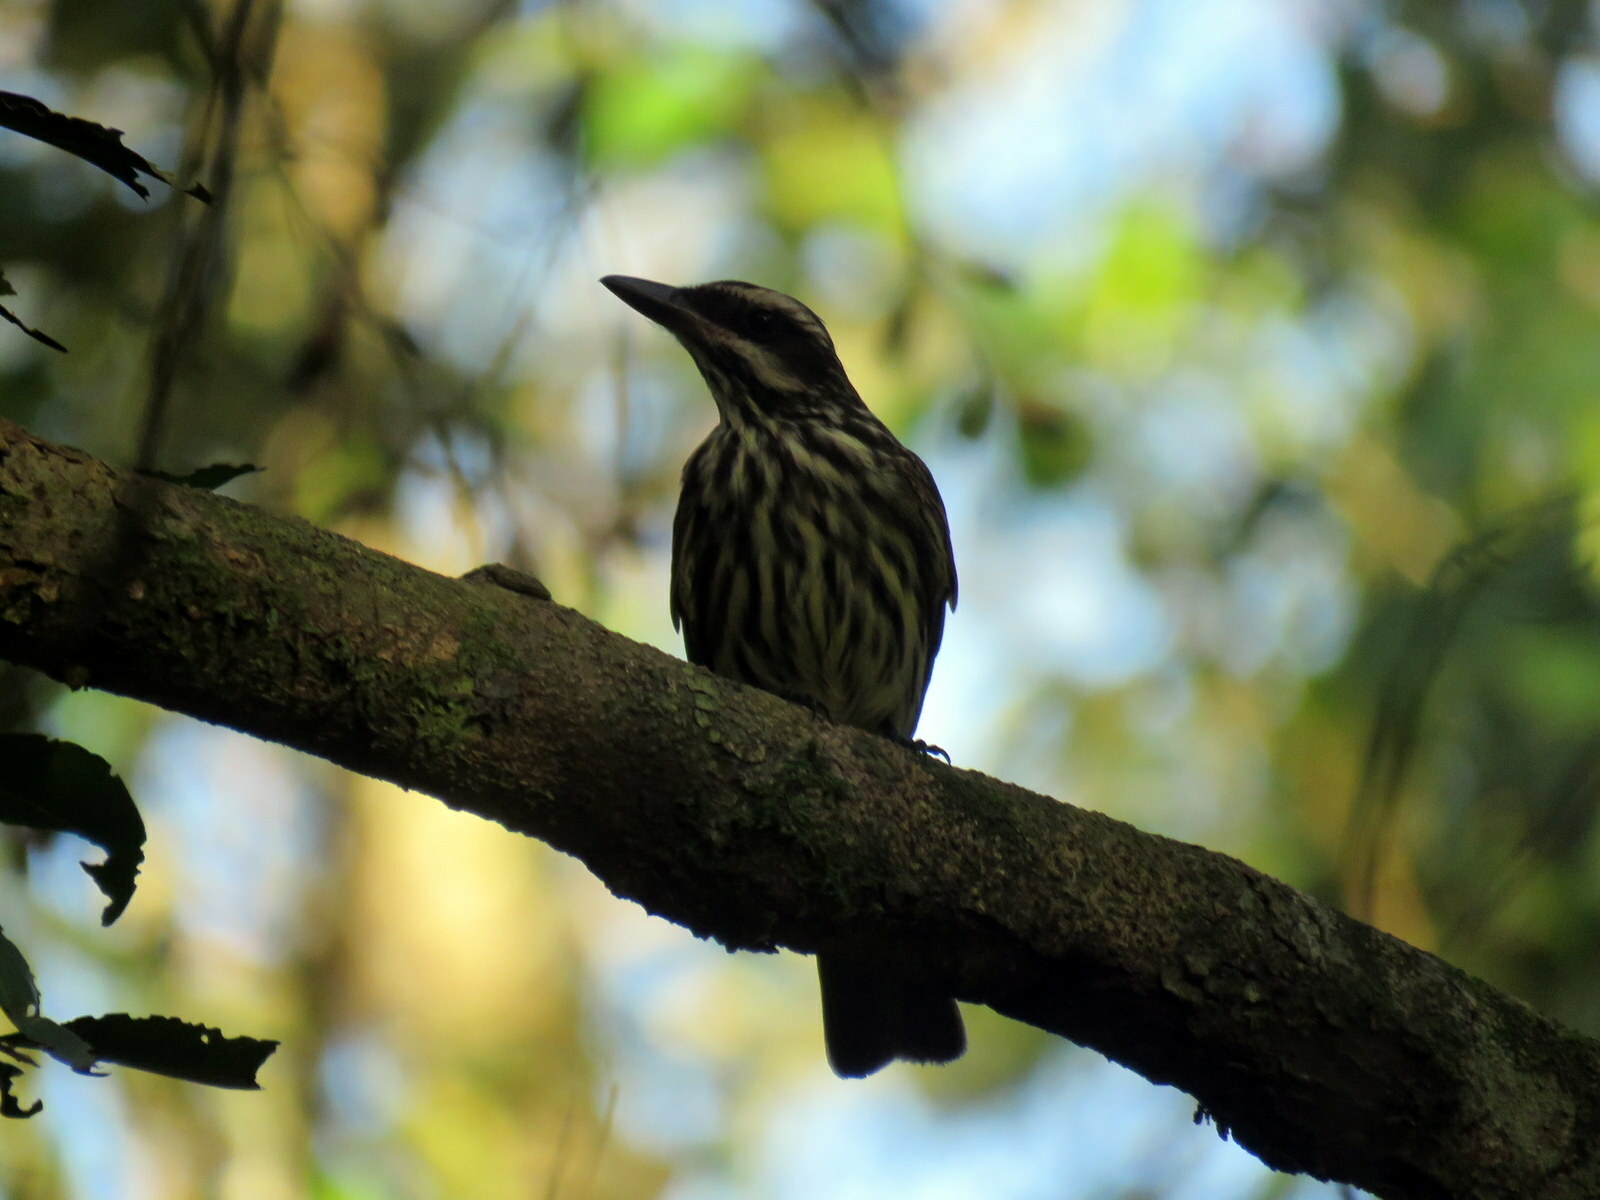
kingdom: Animalia
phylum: Chordata
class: Aves
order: Passeriformes
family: Tyrannidae
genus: Myiodynastes
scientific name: Myiodynastes maculatus
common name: Streaked flycatcher
